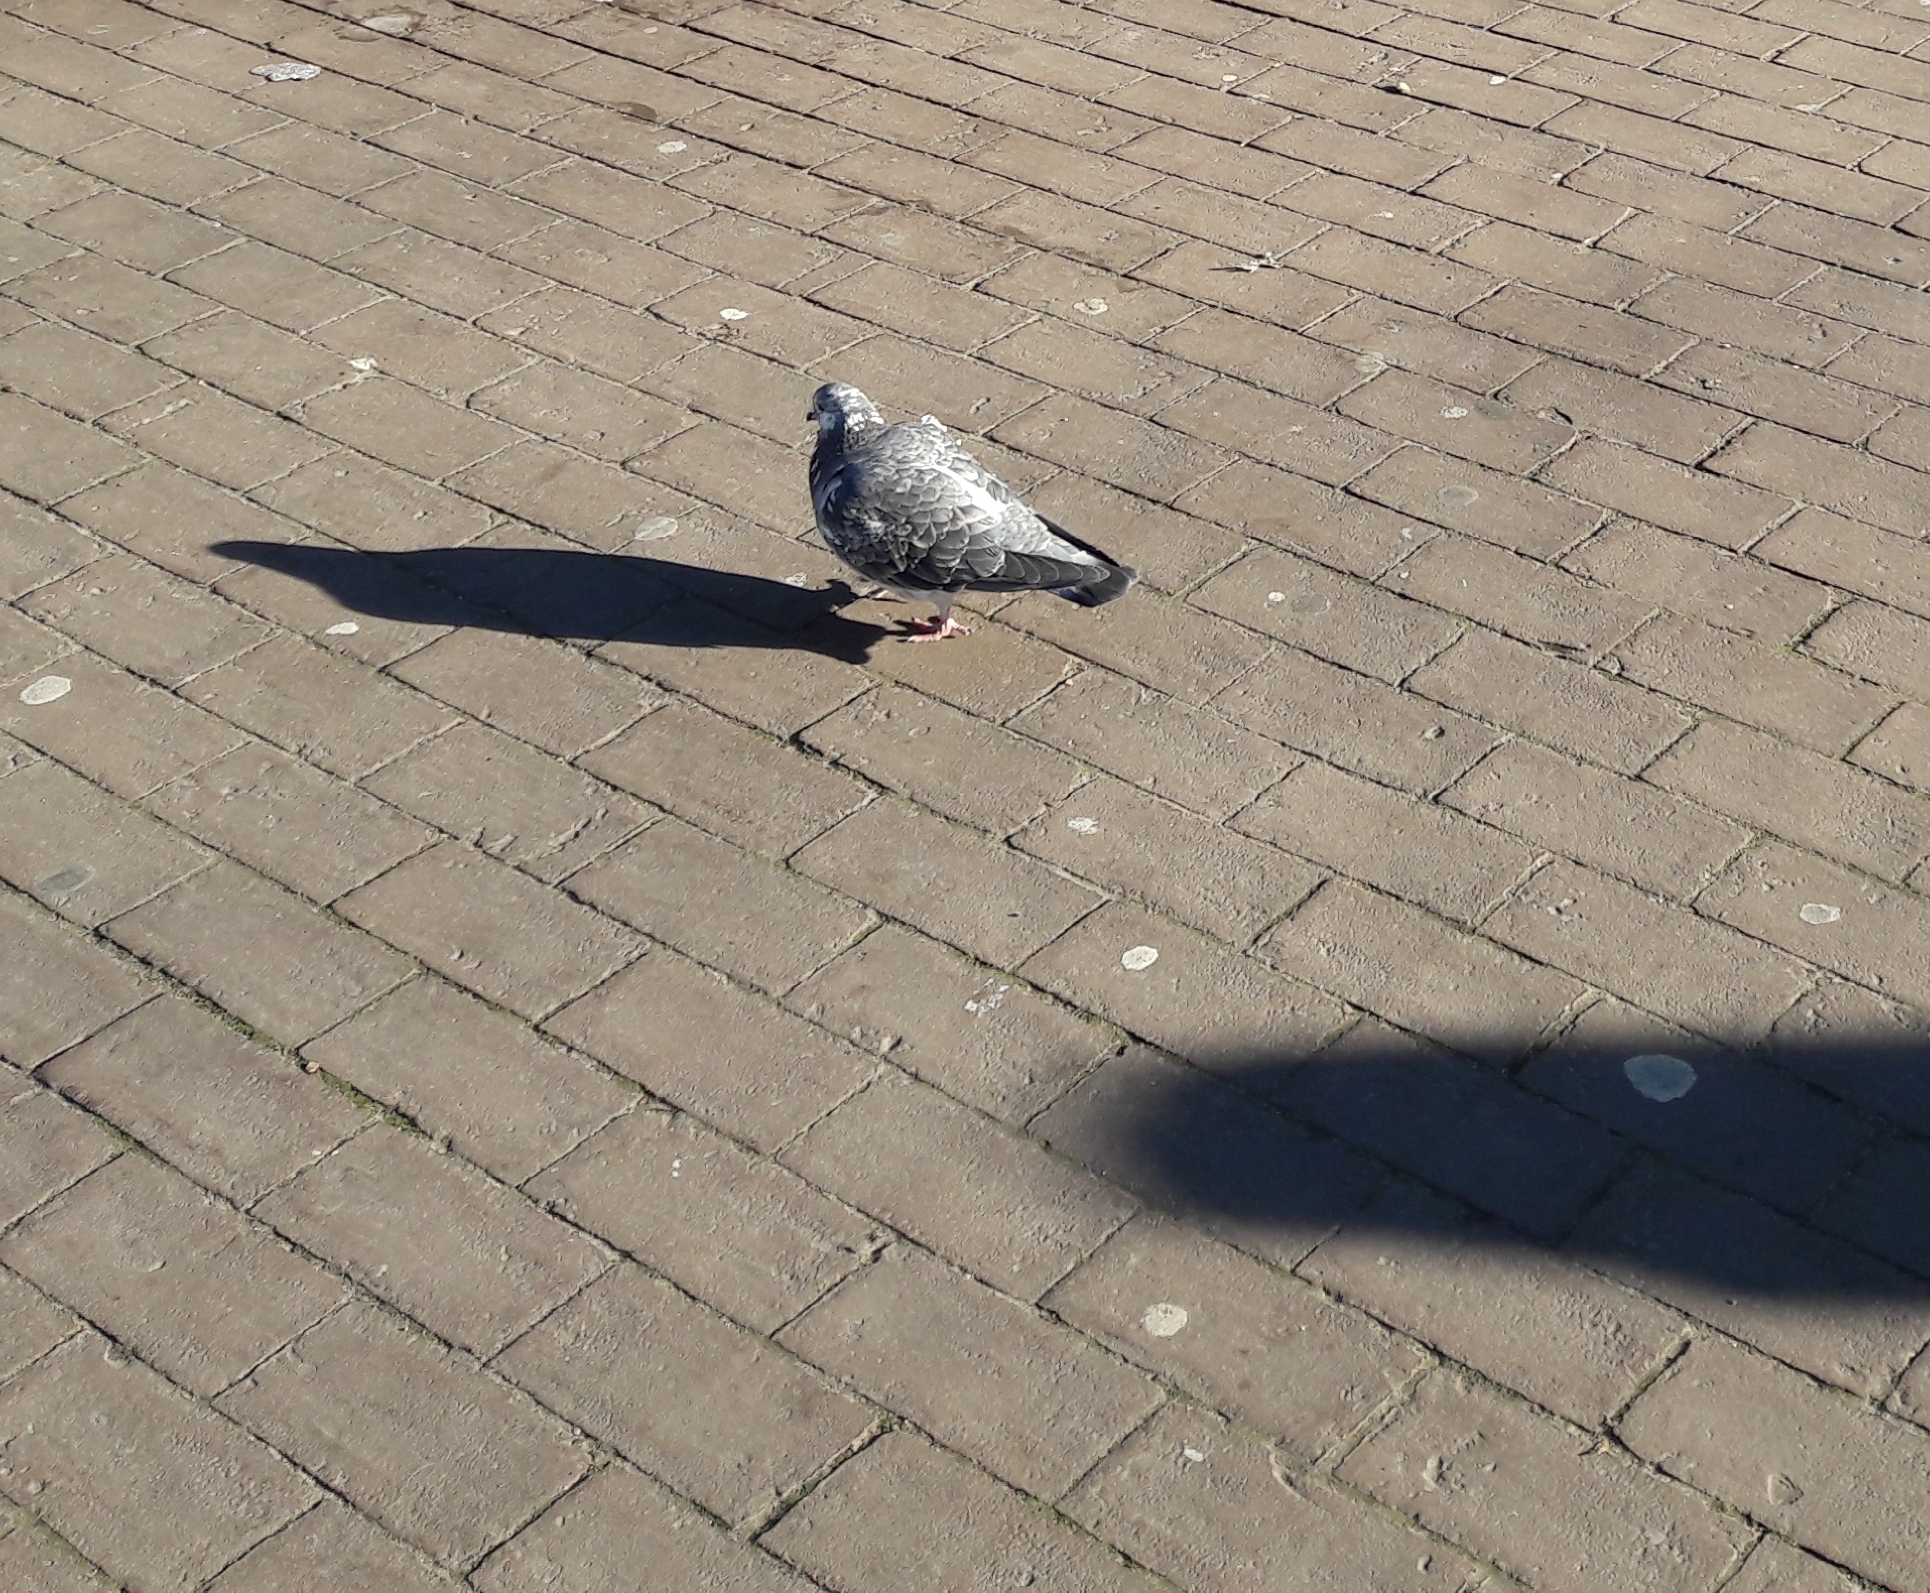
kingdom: Animalia
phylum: Chordata
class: Aves
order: Columbiformes
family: Columbidae
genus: Columba
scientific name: Columba livia
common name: Rock pigeon
